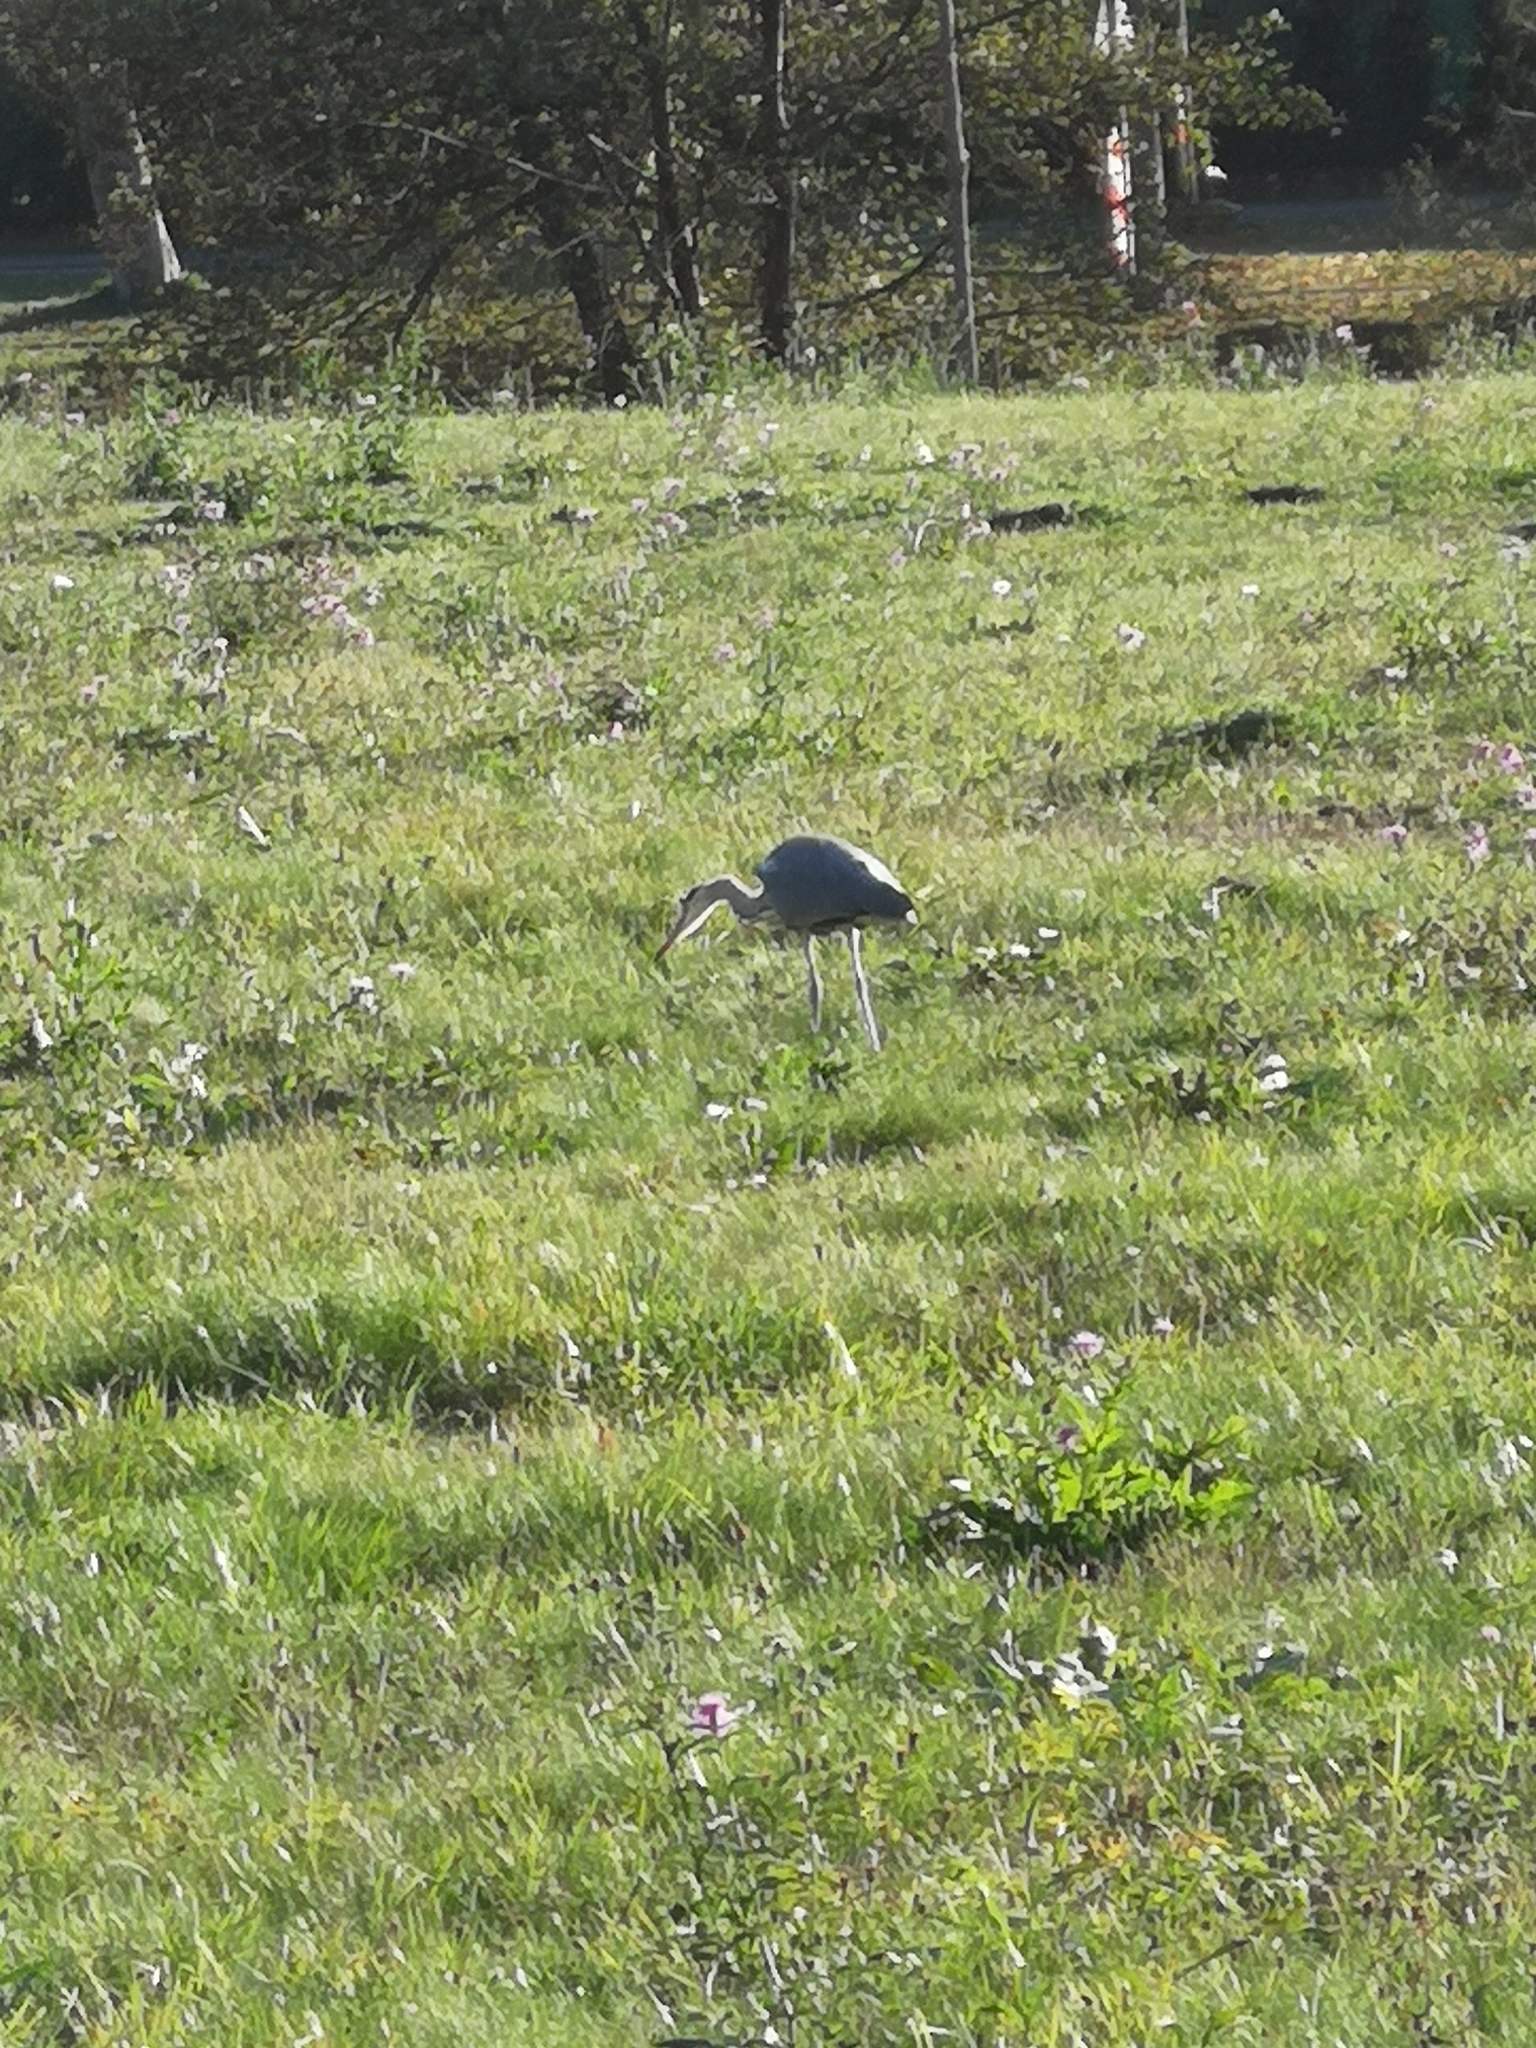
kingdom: Animalia
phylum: Chordata
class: Aves
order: Pelecaniformes
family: Ardeidae
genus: Ardea
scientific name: Ardea cinerea
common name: Grey heron
